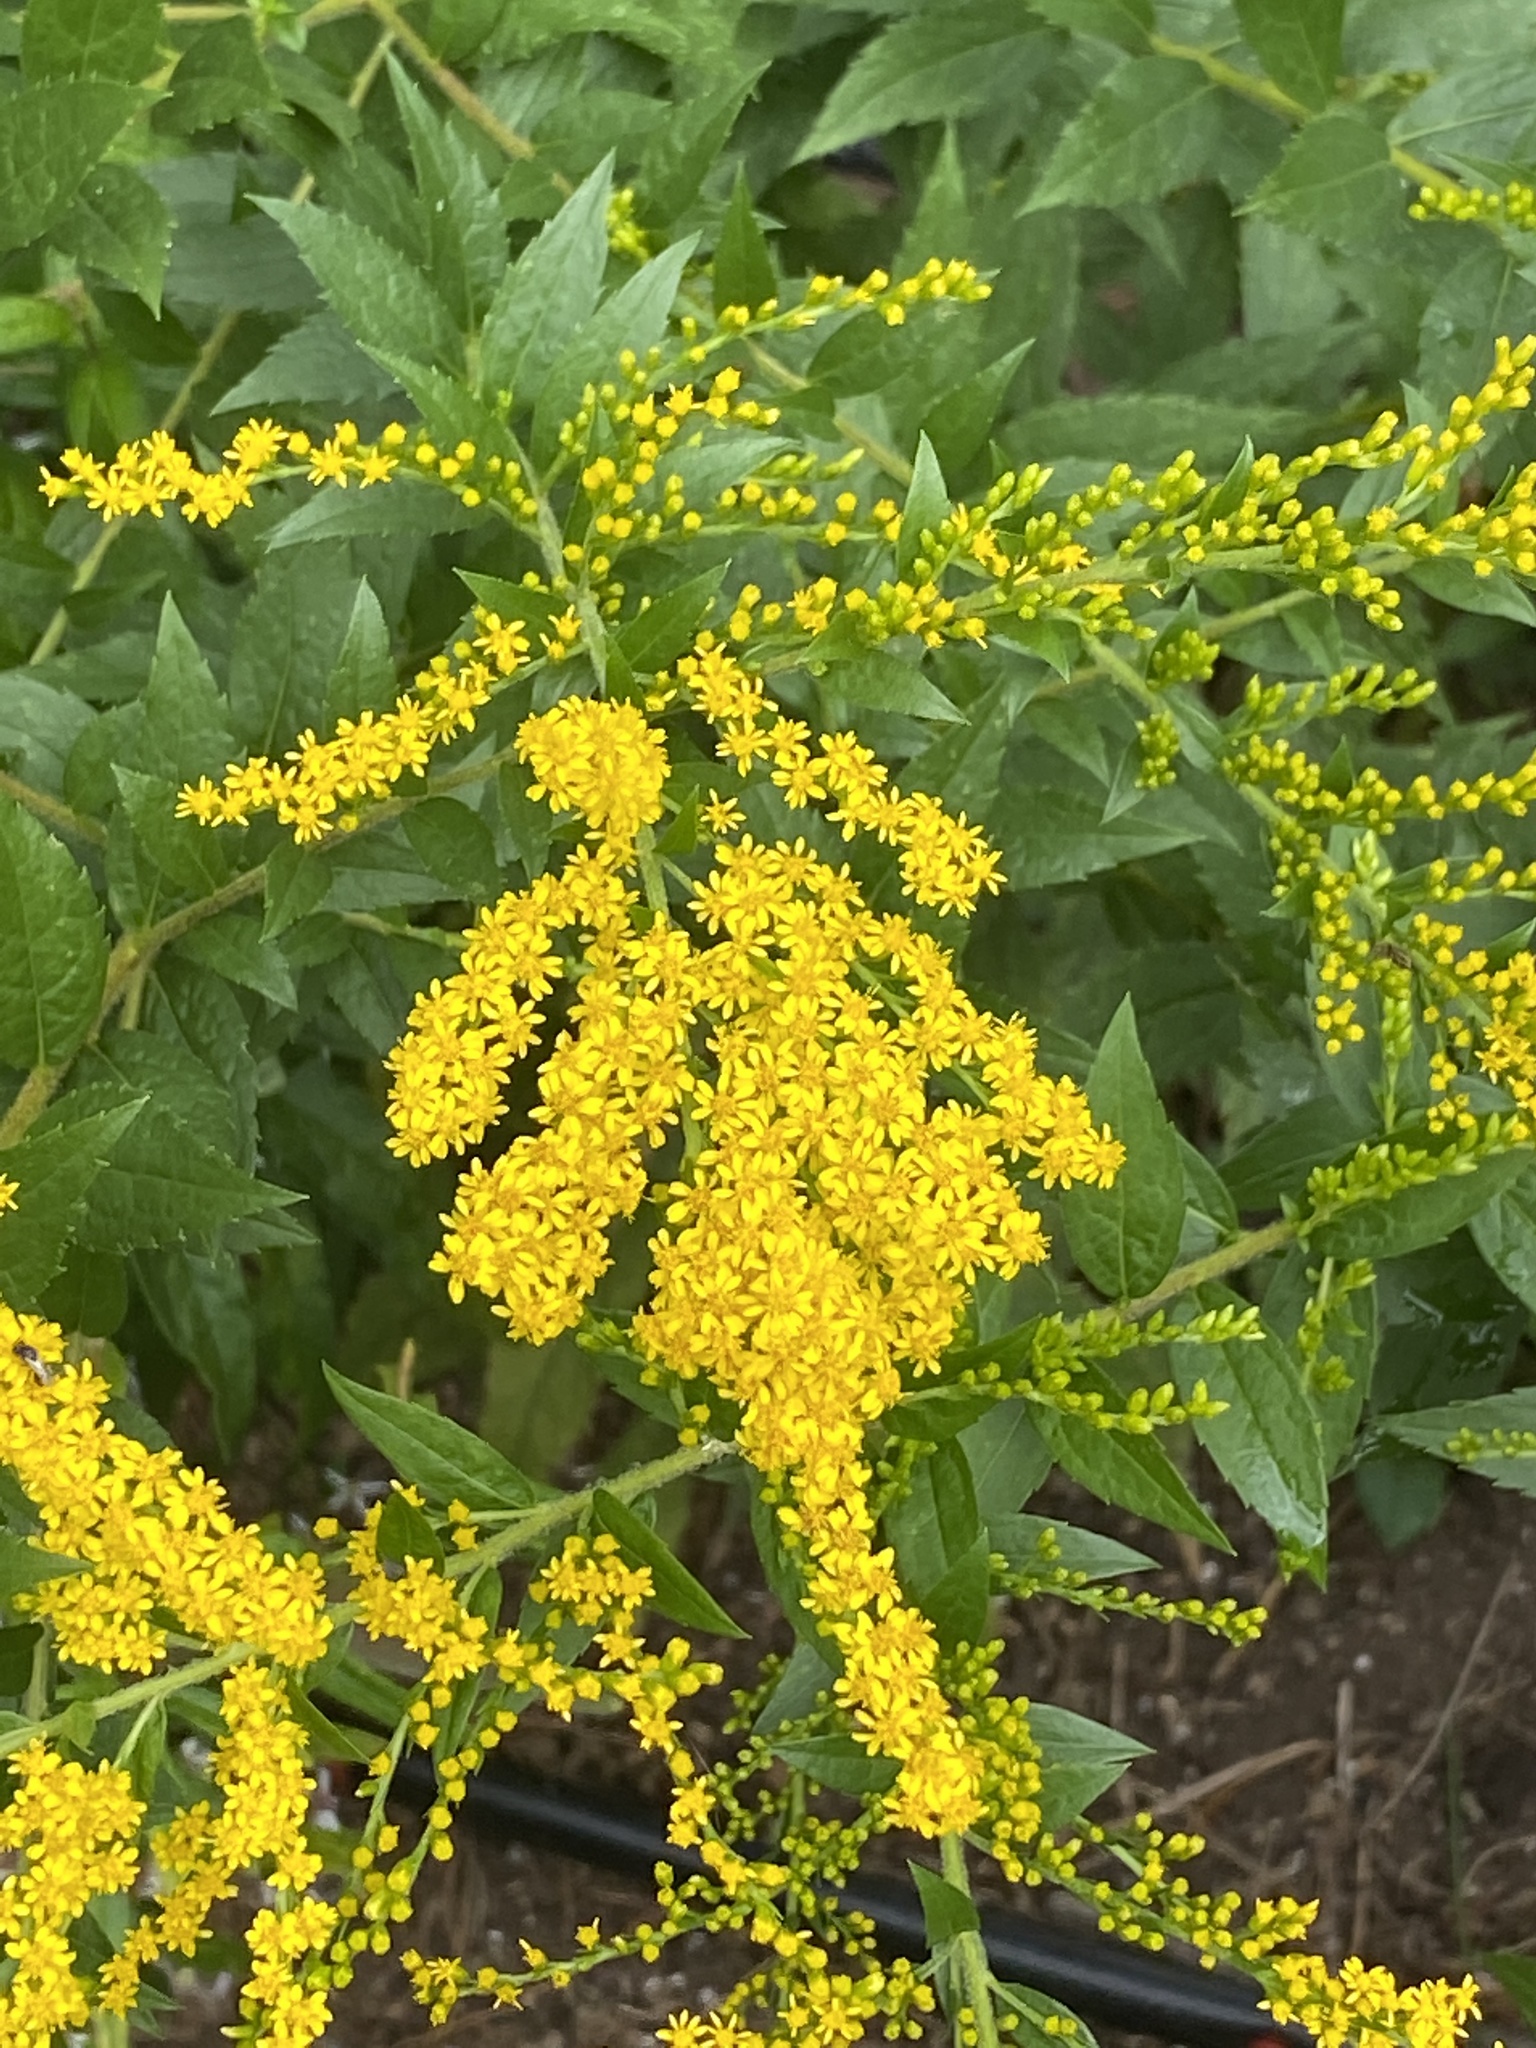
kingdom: Plantae
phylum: Tracheophyta
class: Magnoliopsida
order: Asterales
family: Asteraceae
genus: Solidago
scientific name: Solidago rugosa
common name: Rough-stemmed goldenrod
